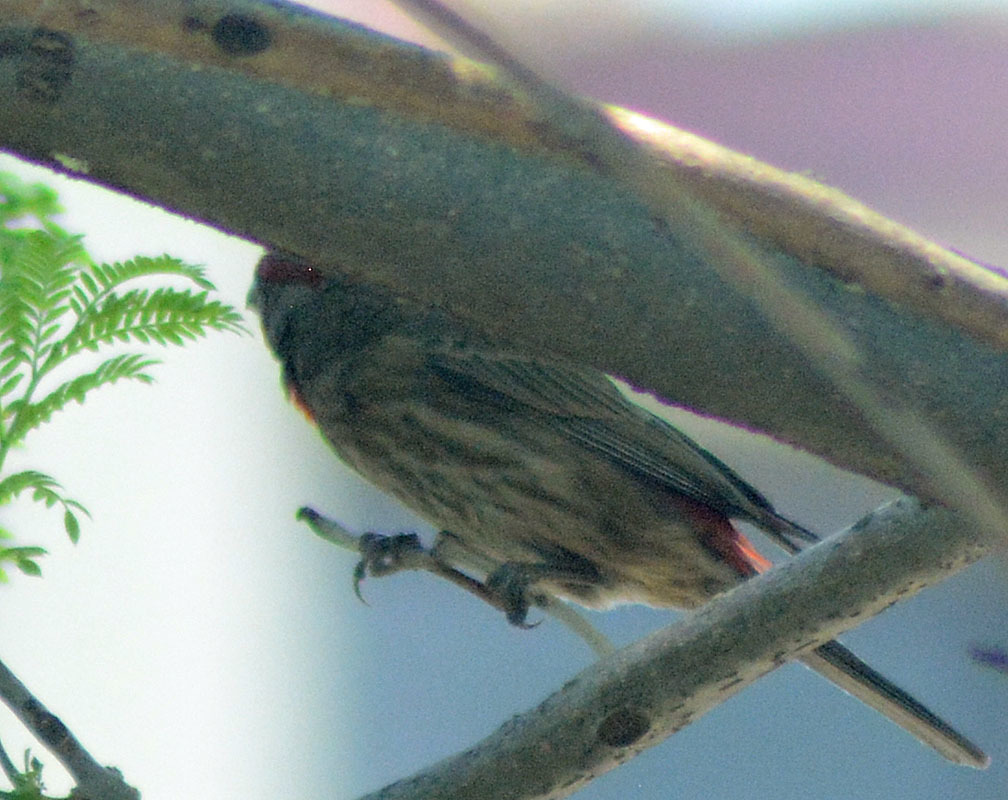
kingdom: Animalia
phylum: Chordata
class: Aves
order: Passeriformes
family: Fringillidae
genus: Haemorhous
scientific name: Haemorhous mexicanus
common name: House finch
